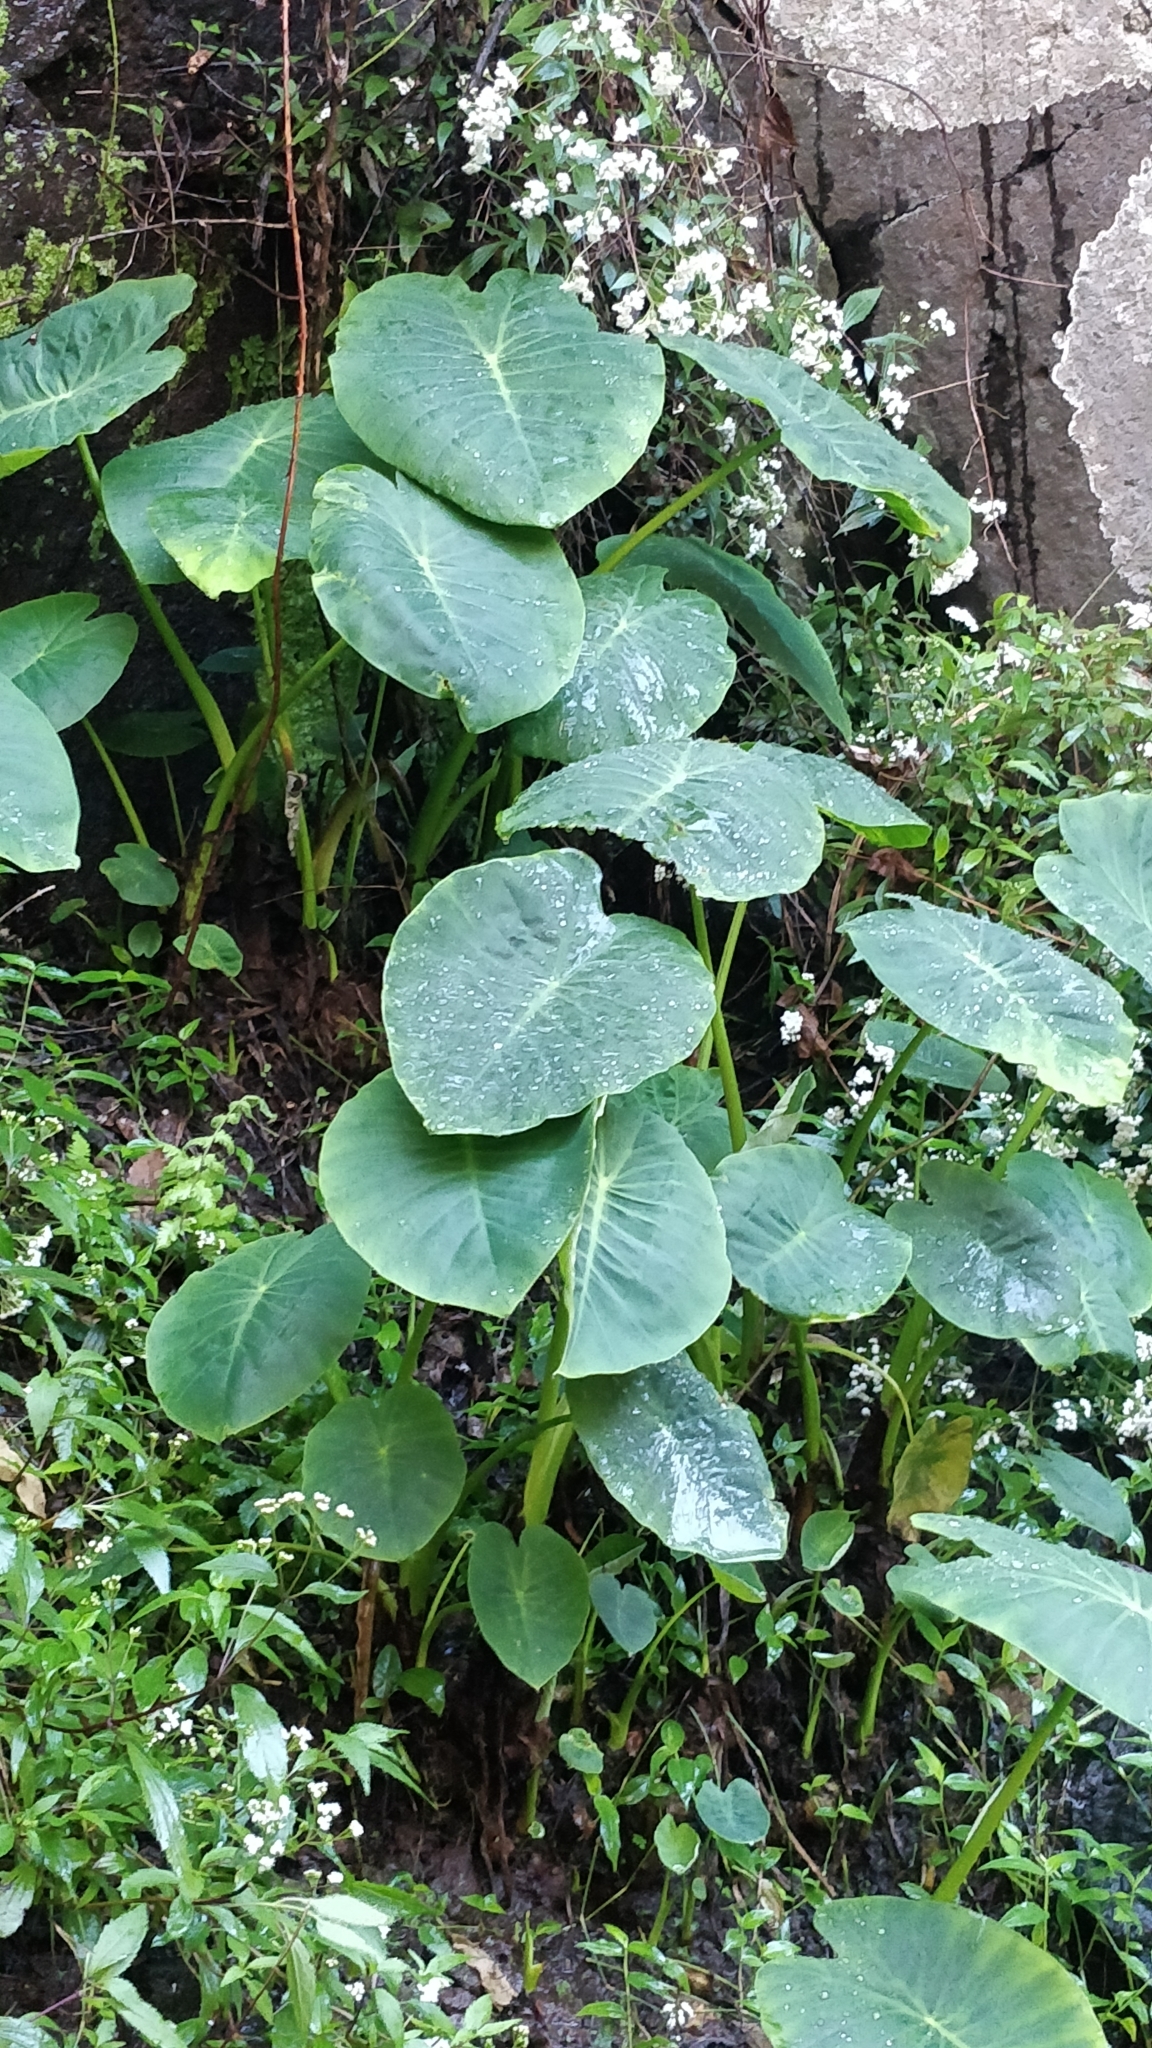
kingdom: Plantae
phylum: Tracheophyta
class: Liliopsida
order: Alismatales
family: Araceae
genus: Colocasia
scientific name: Colocasia esculenta
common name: Taro
